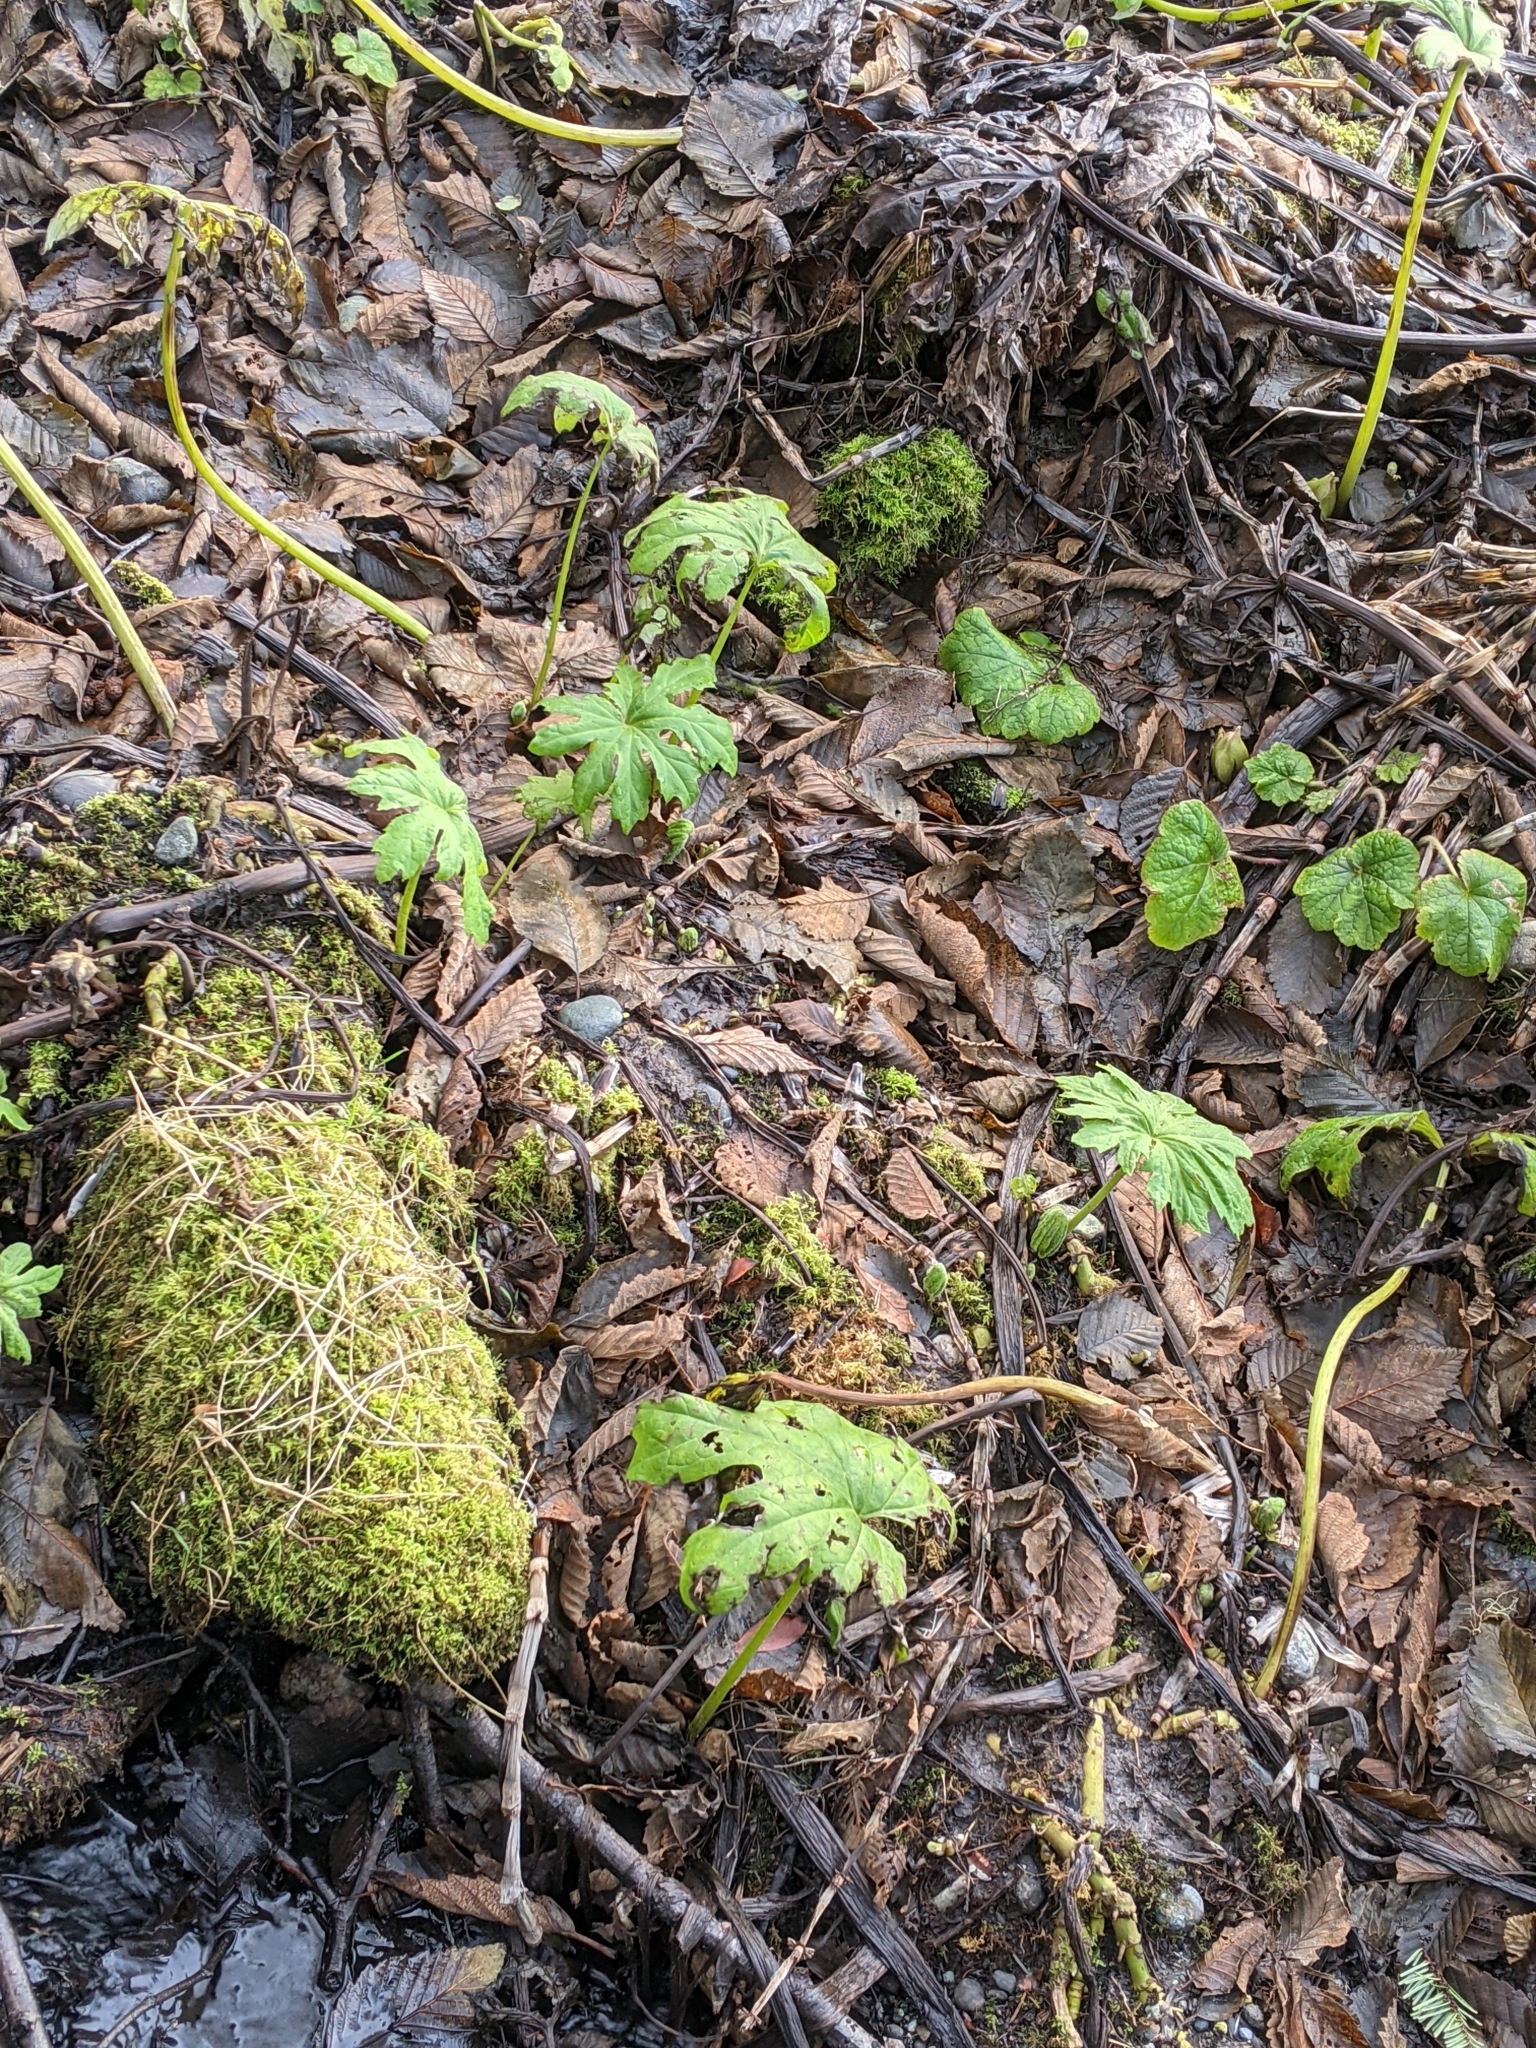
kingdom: Plantae
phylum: Tracheophyta
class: Magnoliopsida
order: Asterales
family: Asteraceae
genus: Petasites
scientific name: Petasites frigidus
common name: Arctic butterbur
